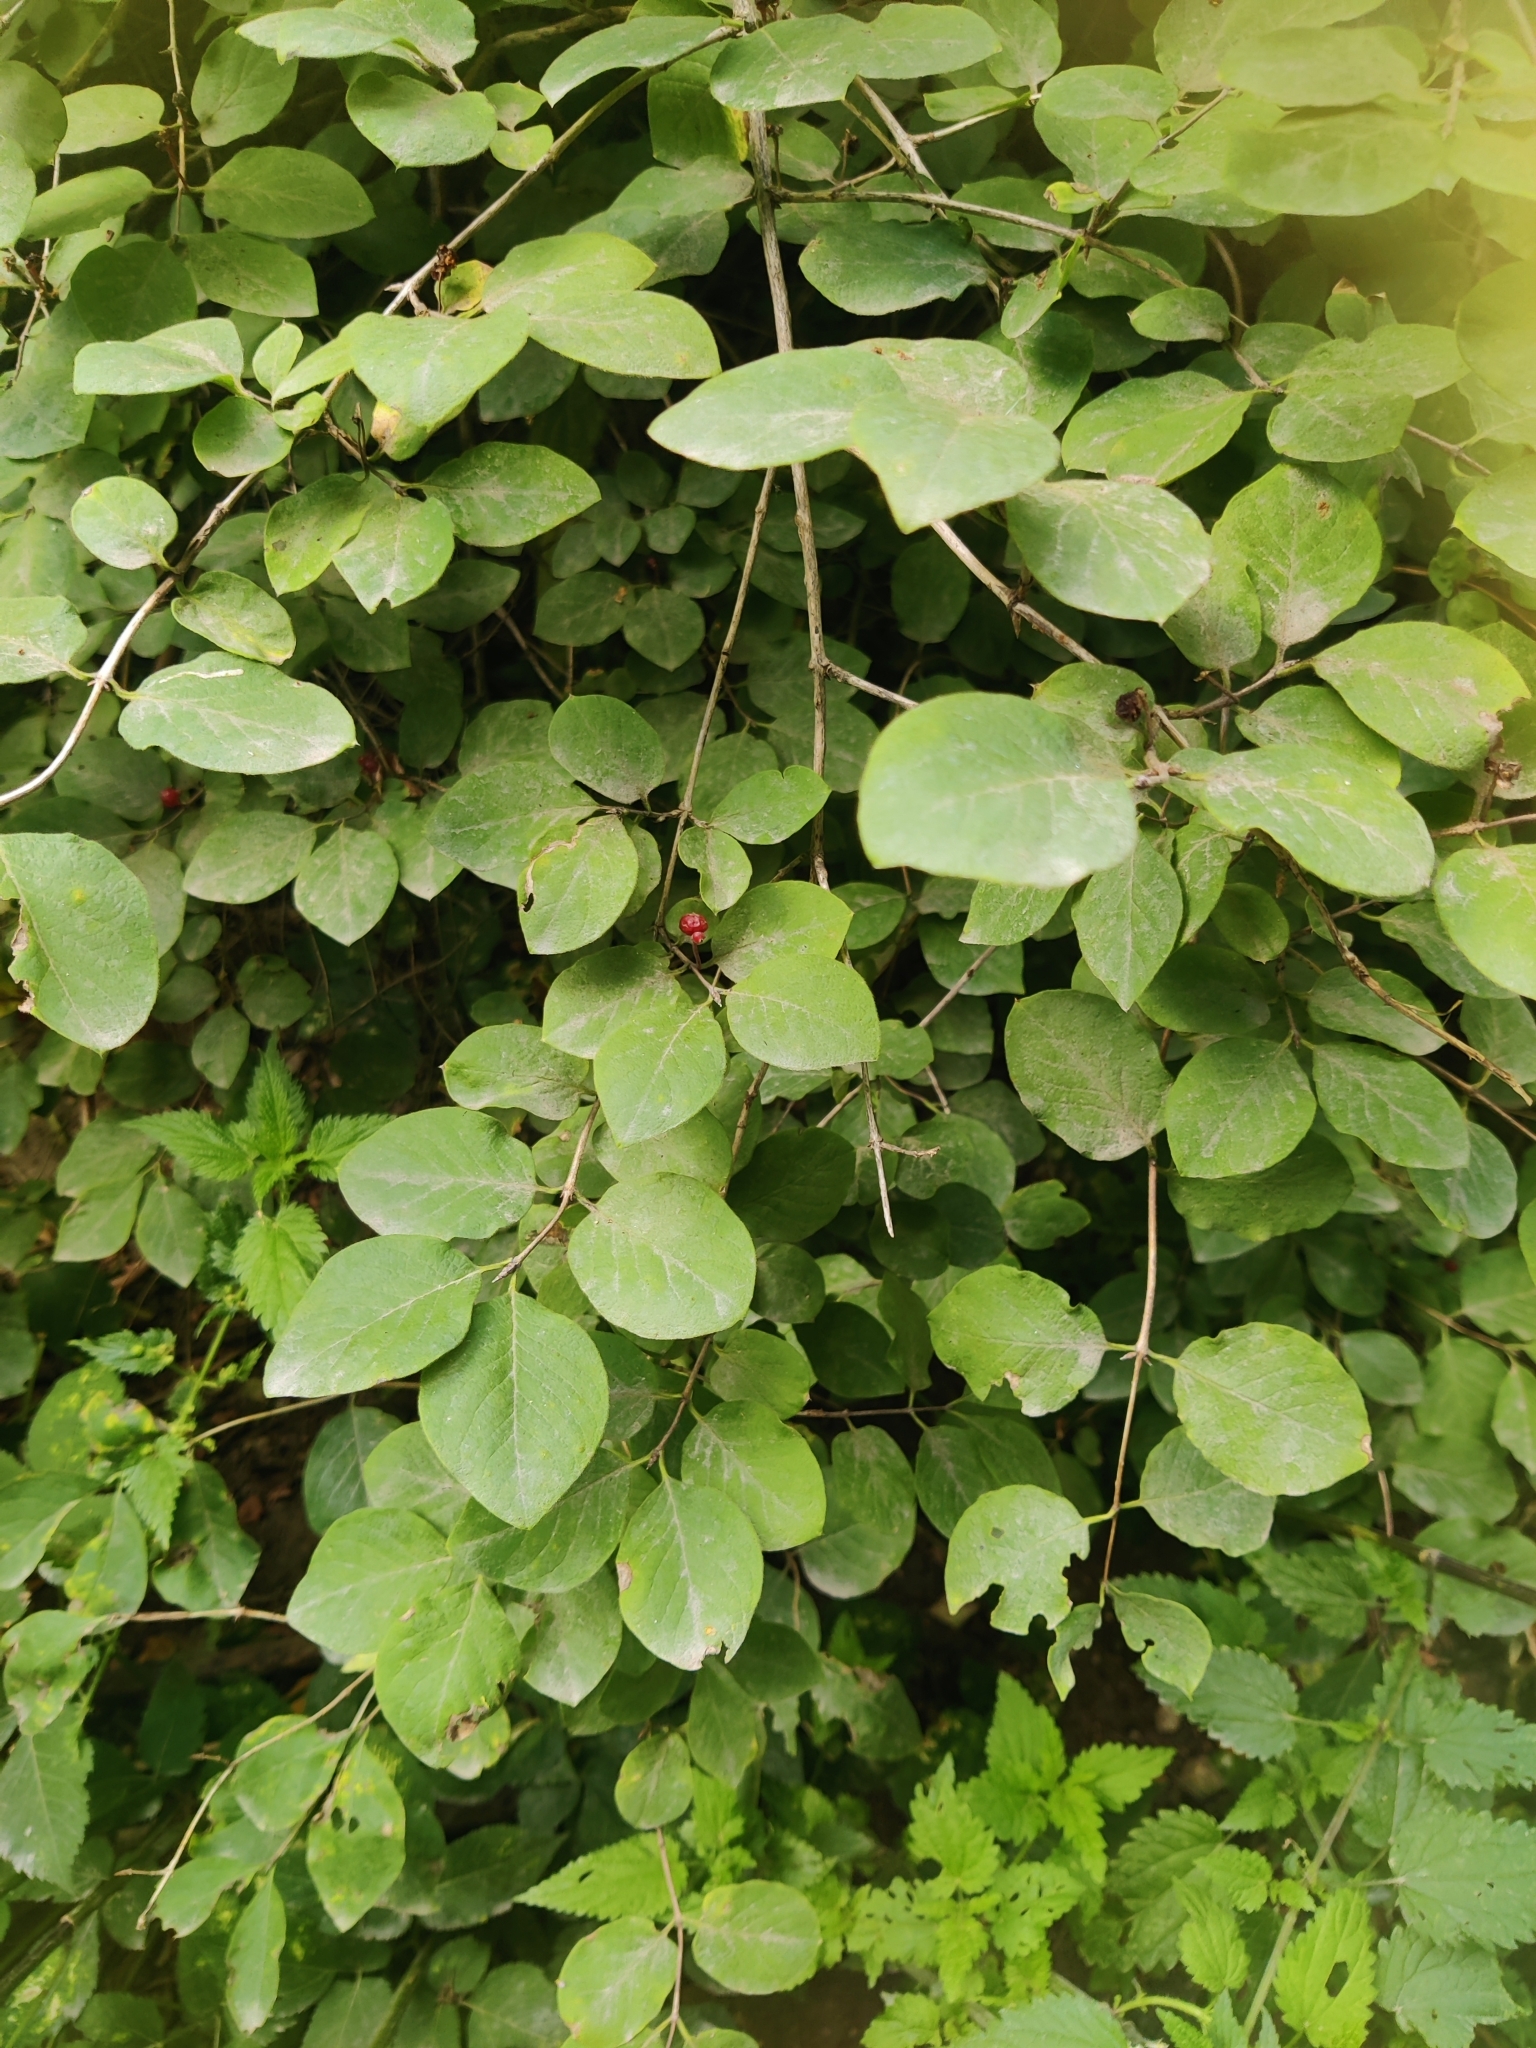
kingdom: Plantae
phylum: Tracheophyta
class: Magnoliopsida
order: Dipsacales
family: Caprifoliaceae
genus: Lonicera
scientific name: Lonicera xylosteum
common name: Fly honeysuckle
